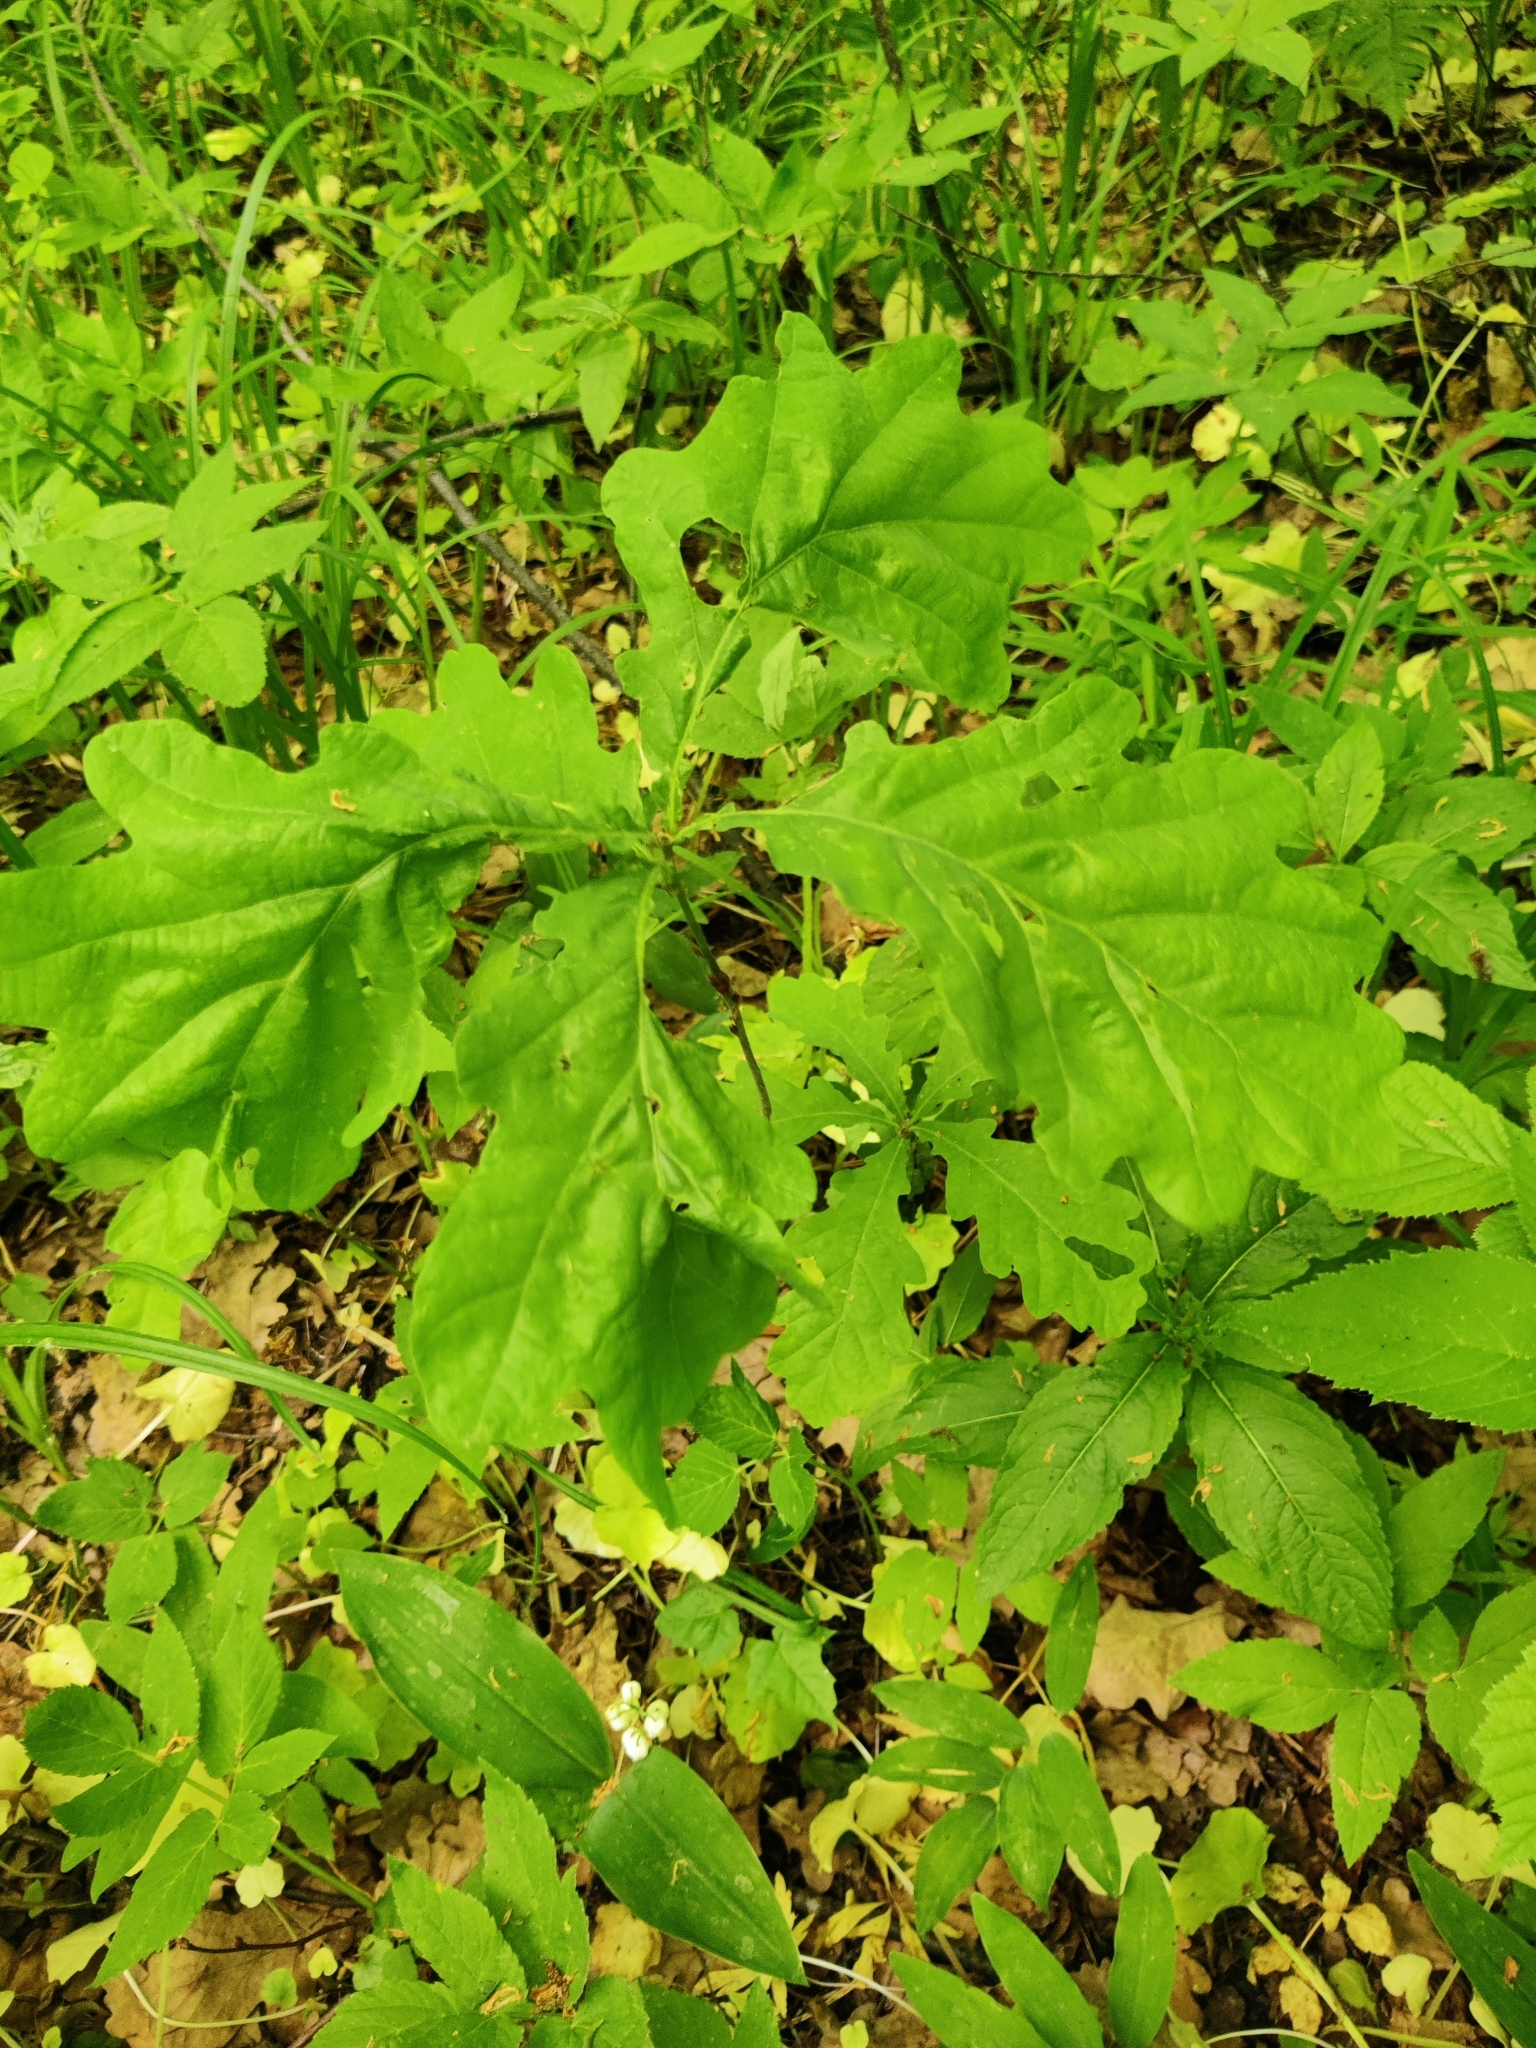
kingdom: Plantae
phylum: Tracheophyta
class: Magnoliopsida
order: Fagales
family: Fagaceae
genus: Quercus
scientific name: Quercus robur
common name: Pedunculate oak
